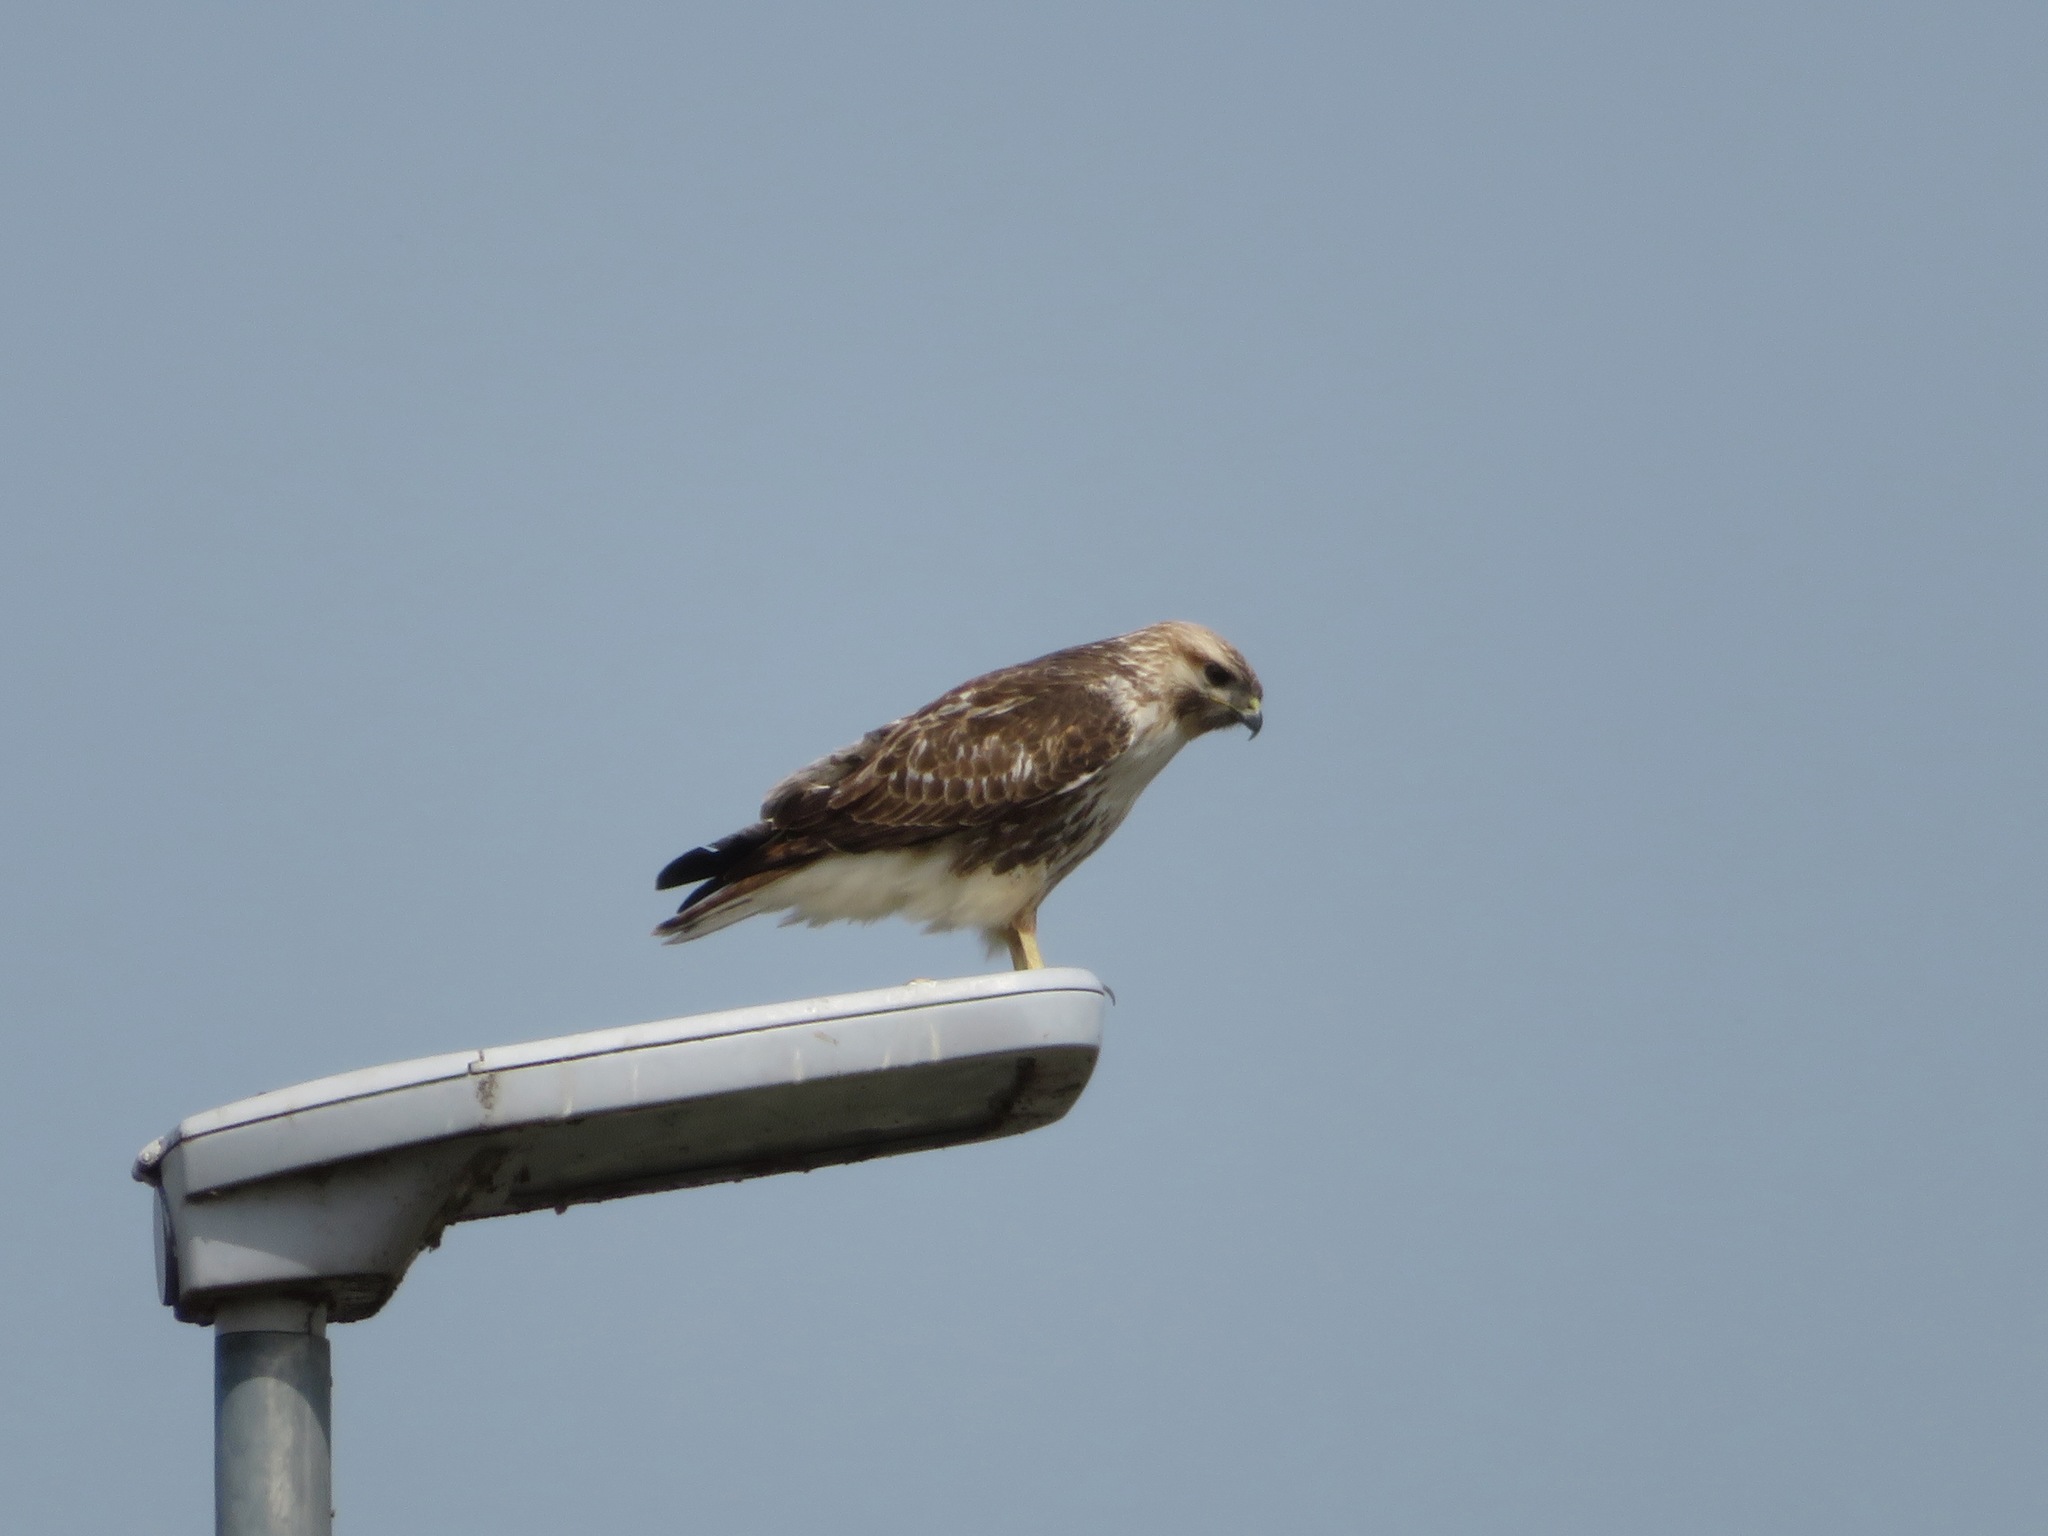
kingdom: Animalia
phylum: Chordata
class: Aves
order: Accipitriformes
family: Accipitridae
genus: Buteo
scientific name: Buteo japonicus
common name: Eastern buzzard
